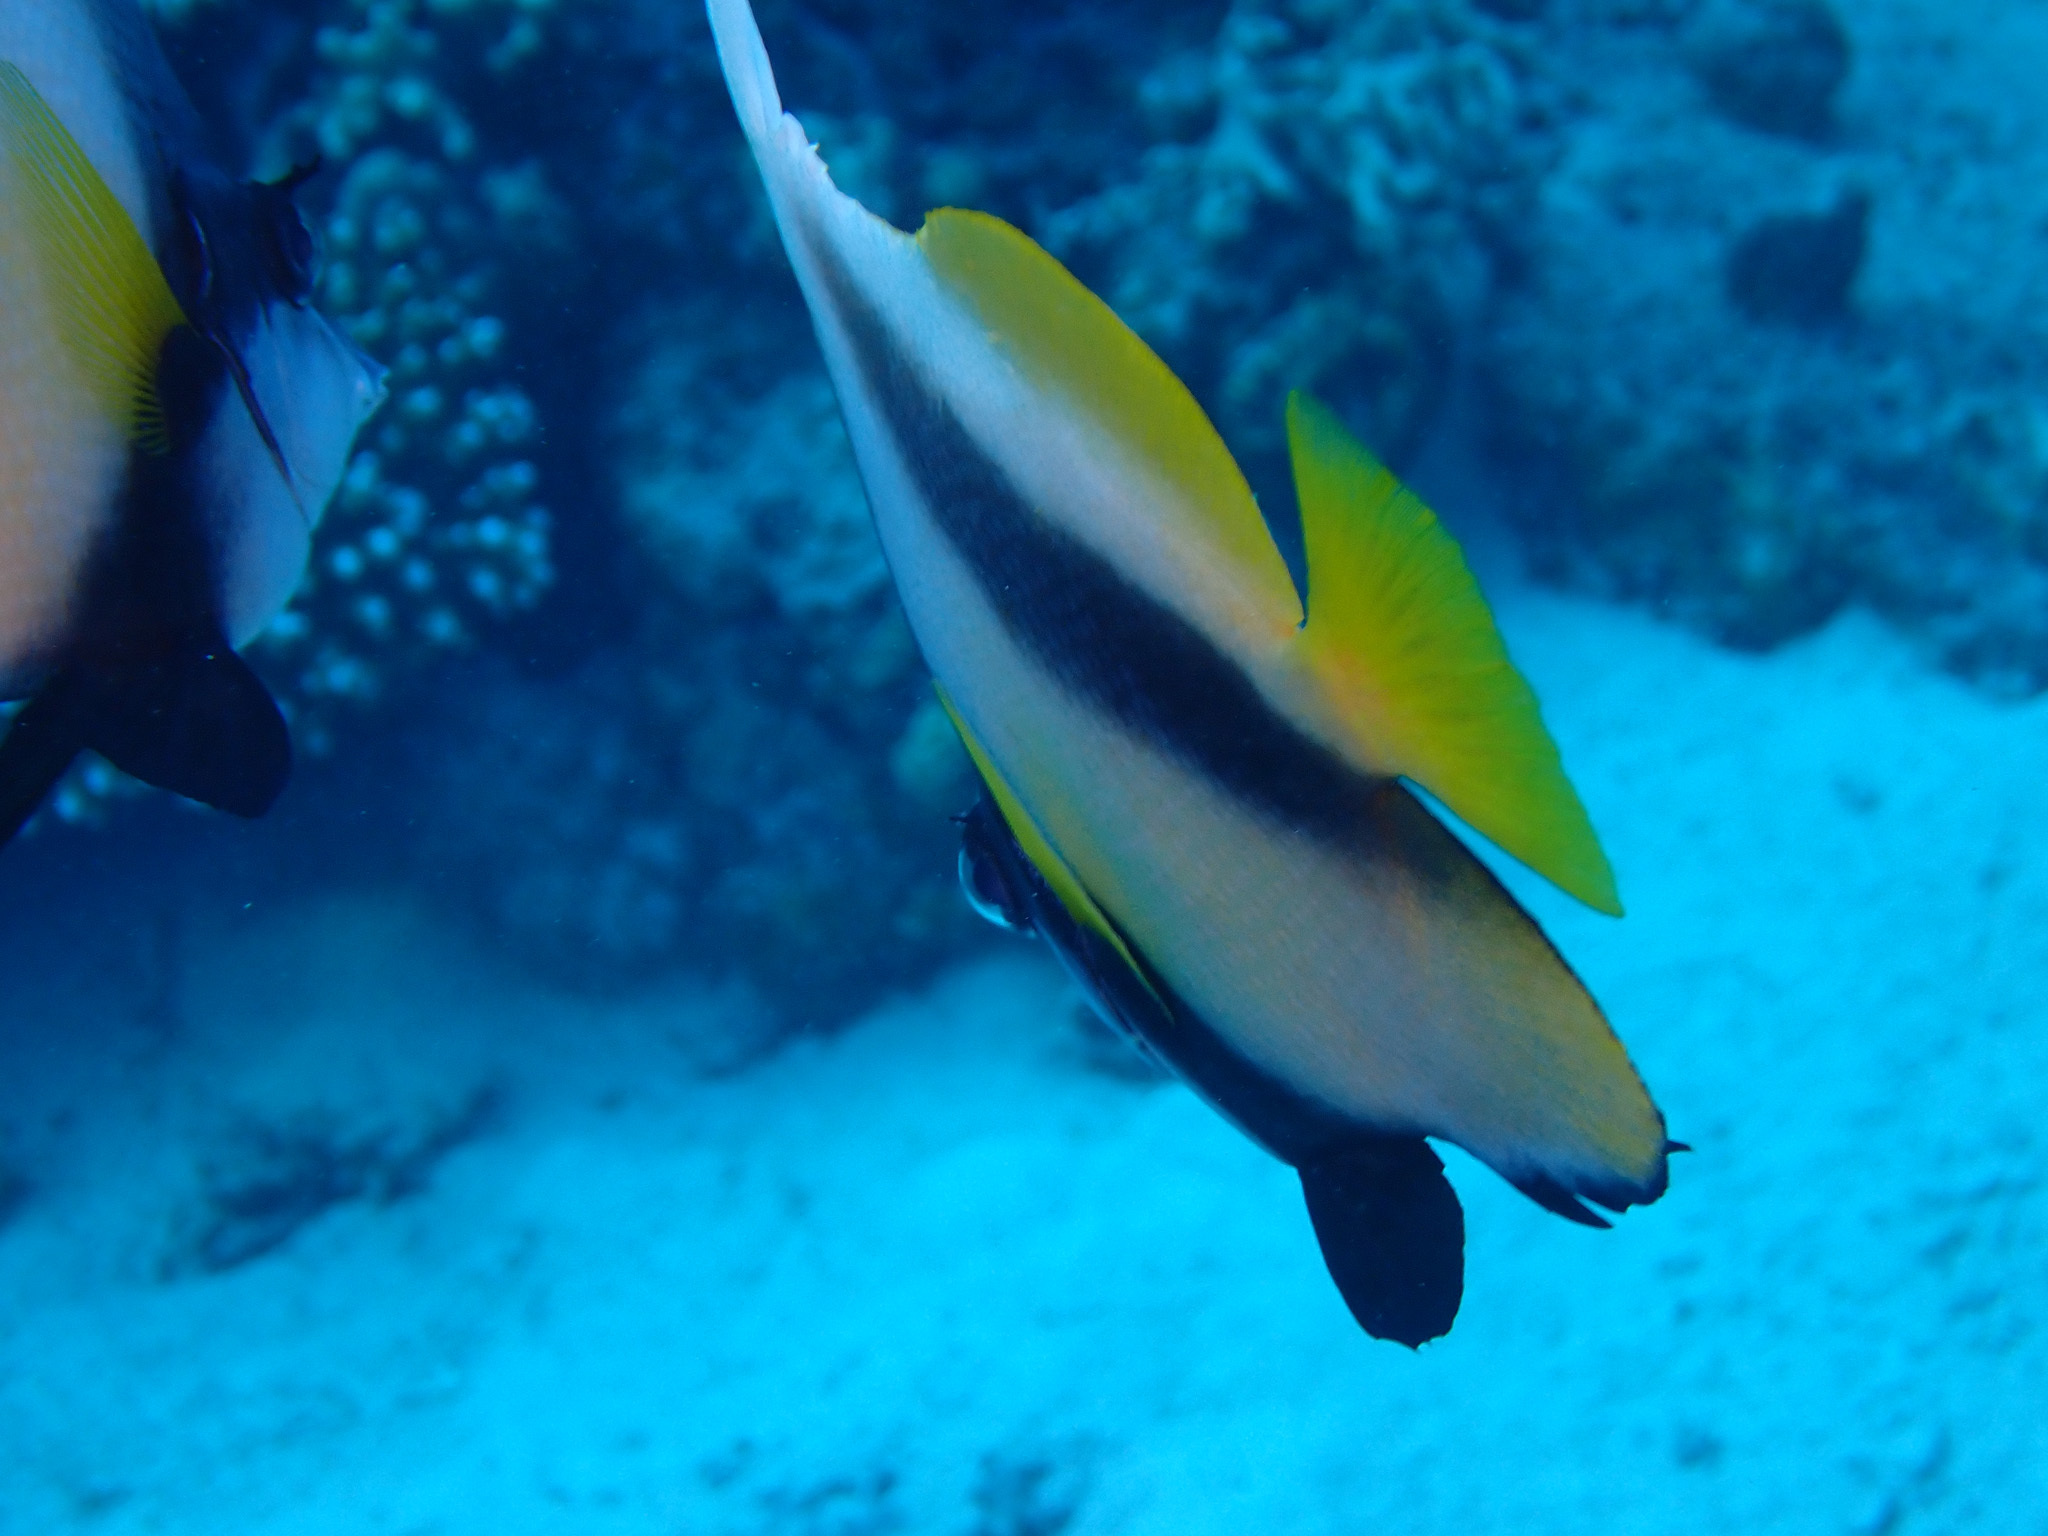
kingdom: Animalia
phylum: Chordata
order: Perciformes
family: Chaetodontidae
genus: Heniochus
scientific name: Heniochus intermedius
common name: Red sea bannerfish
